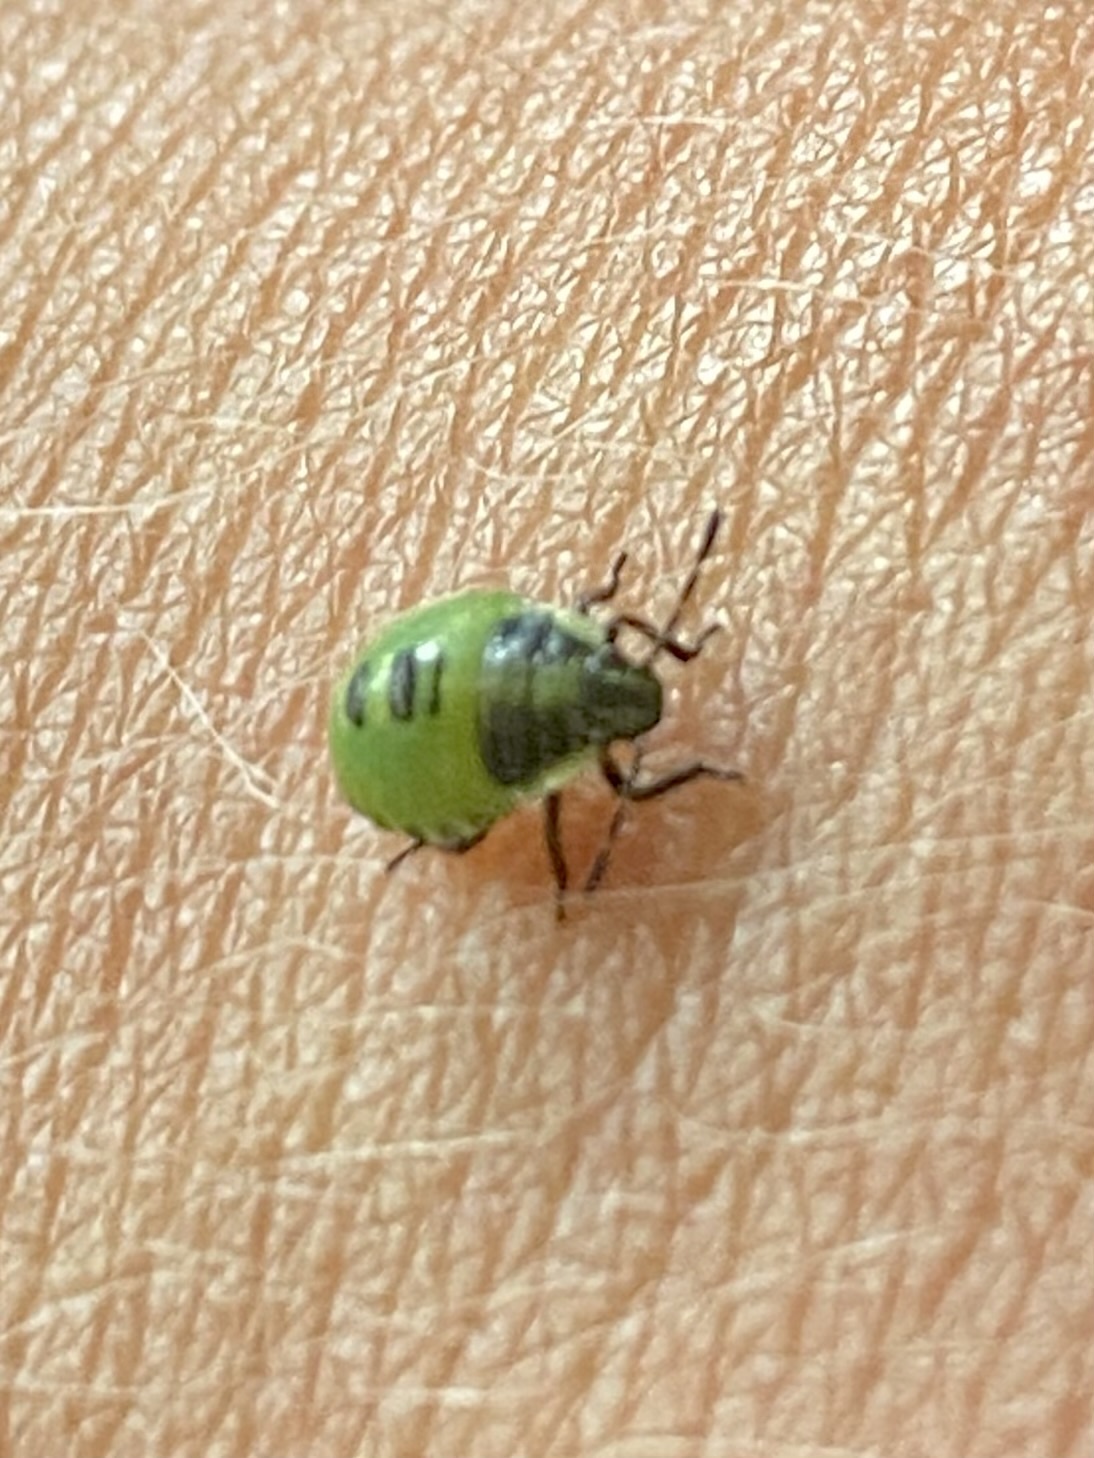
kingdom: Animalia
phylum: Arthropoda
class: Insecta
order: Hemiptera
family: Pentatomidae
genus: Palomena
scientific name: Palomena prasina
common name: Green shieldbug
